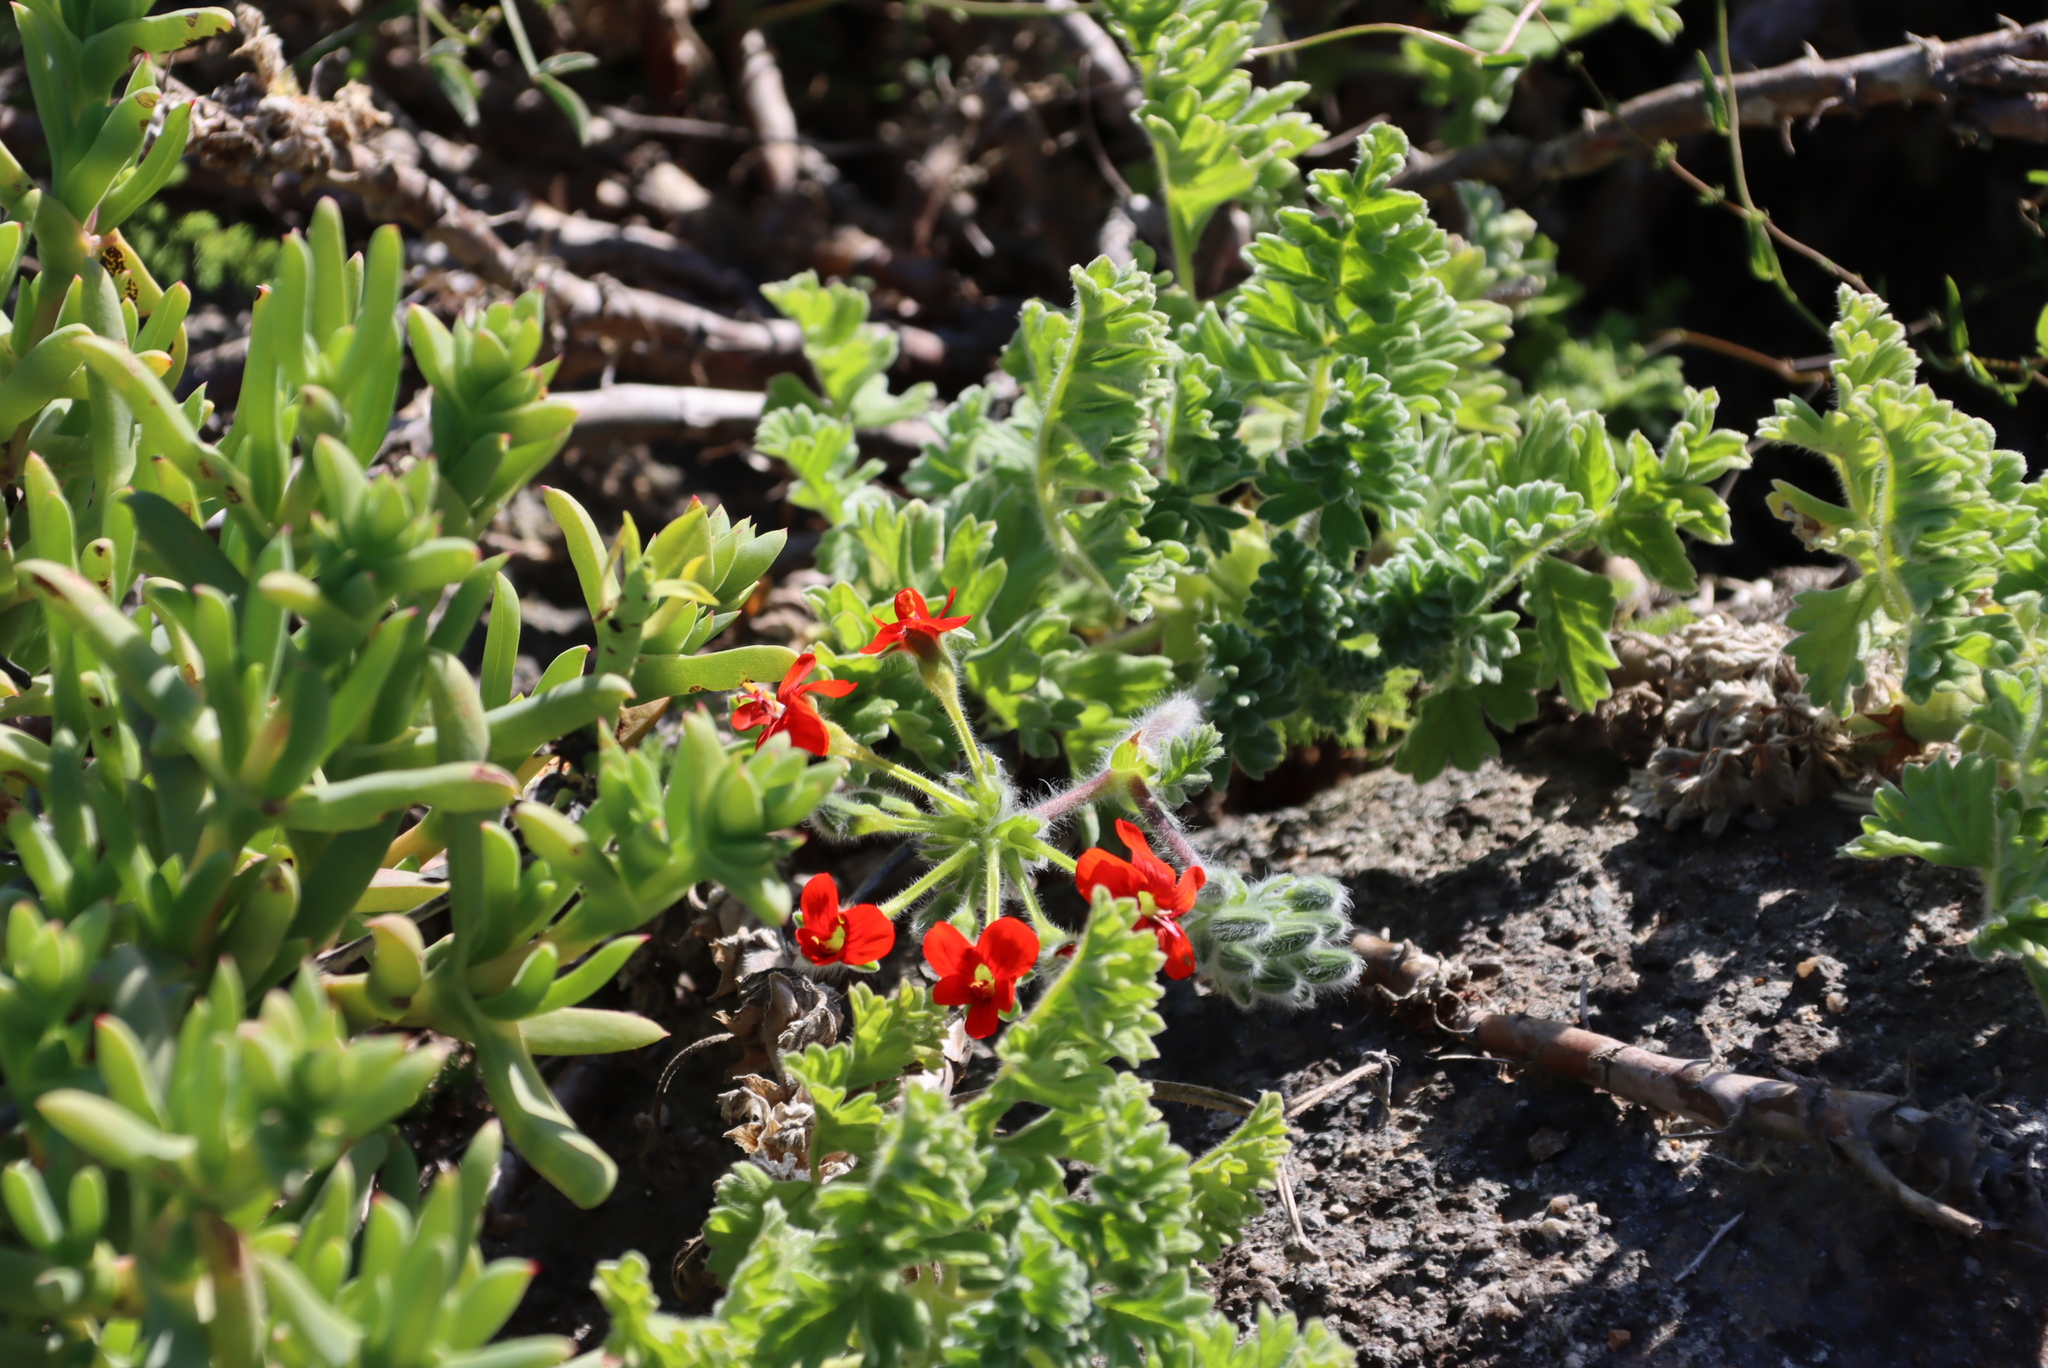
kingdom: Plantae
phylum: Tracheophyta
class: Magnoliopsida
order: Geraniales
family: Geraniaceae
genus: Pelargonium
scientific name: Pelargonium fulgidum
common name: Celandine-leaf pelargonium
